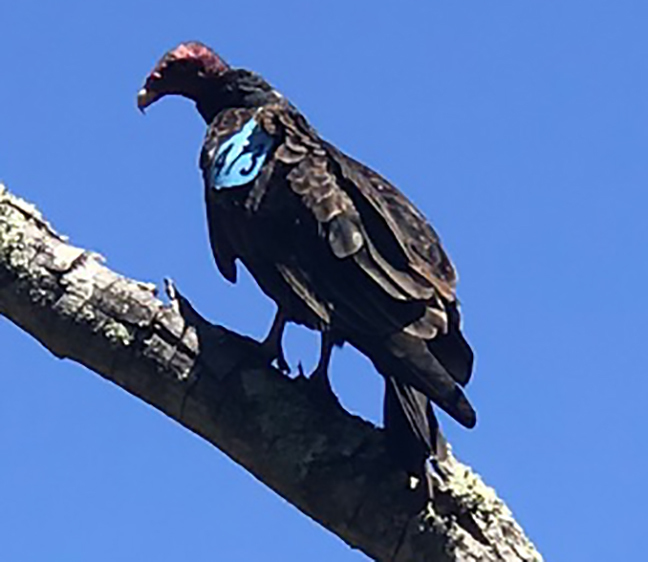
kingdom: Animalia
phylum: Chordata
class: Aves
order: Accipitriformes
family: Cathartidae
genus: Cathartes
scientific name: Cathartes aura
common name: Turkey vulture
